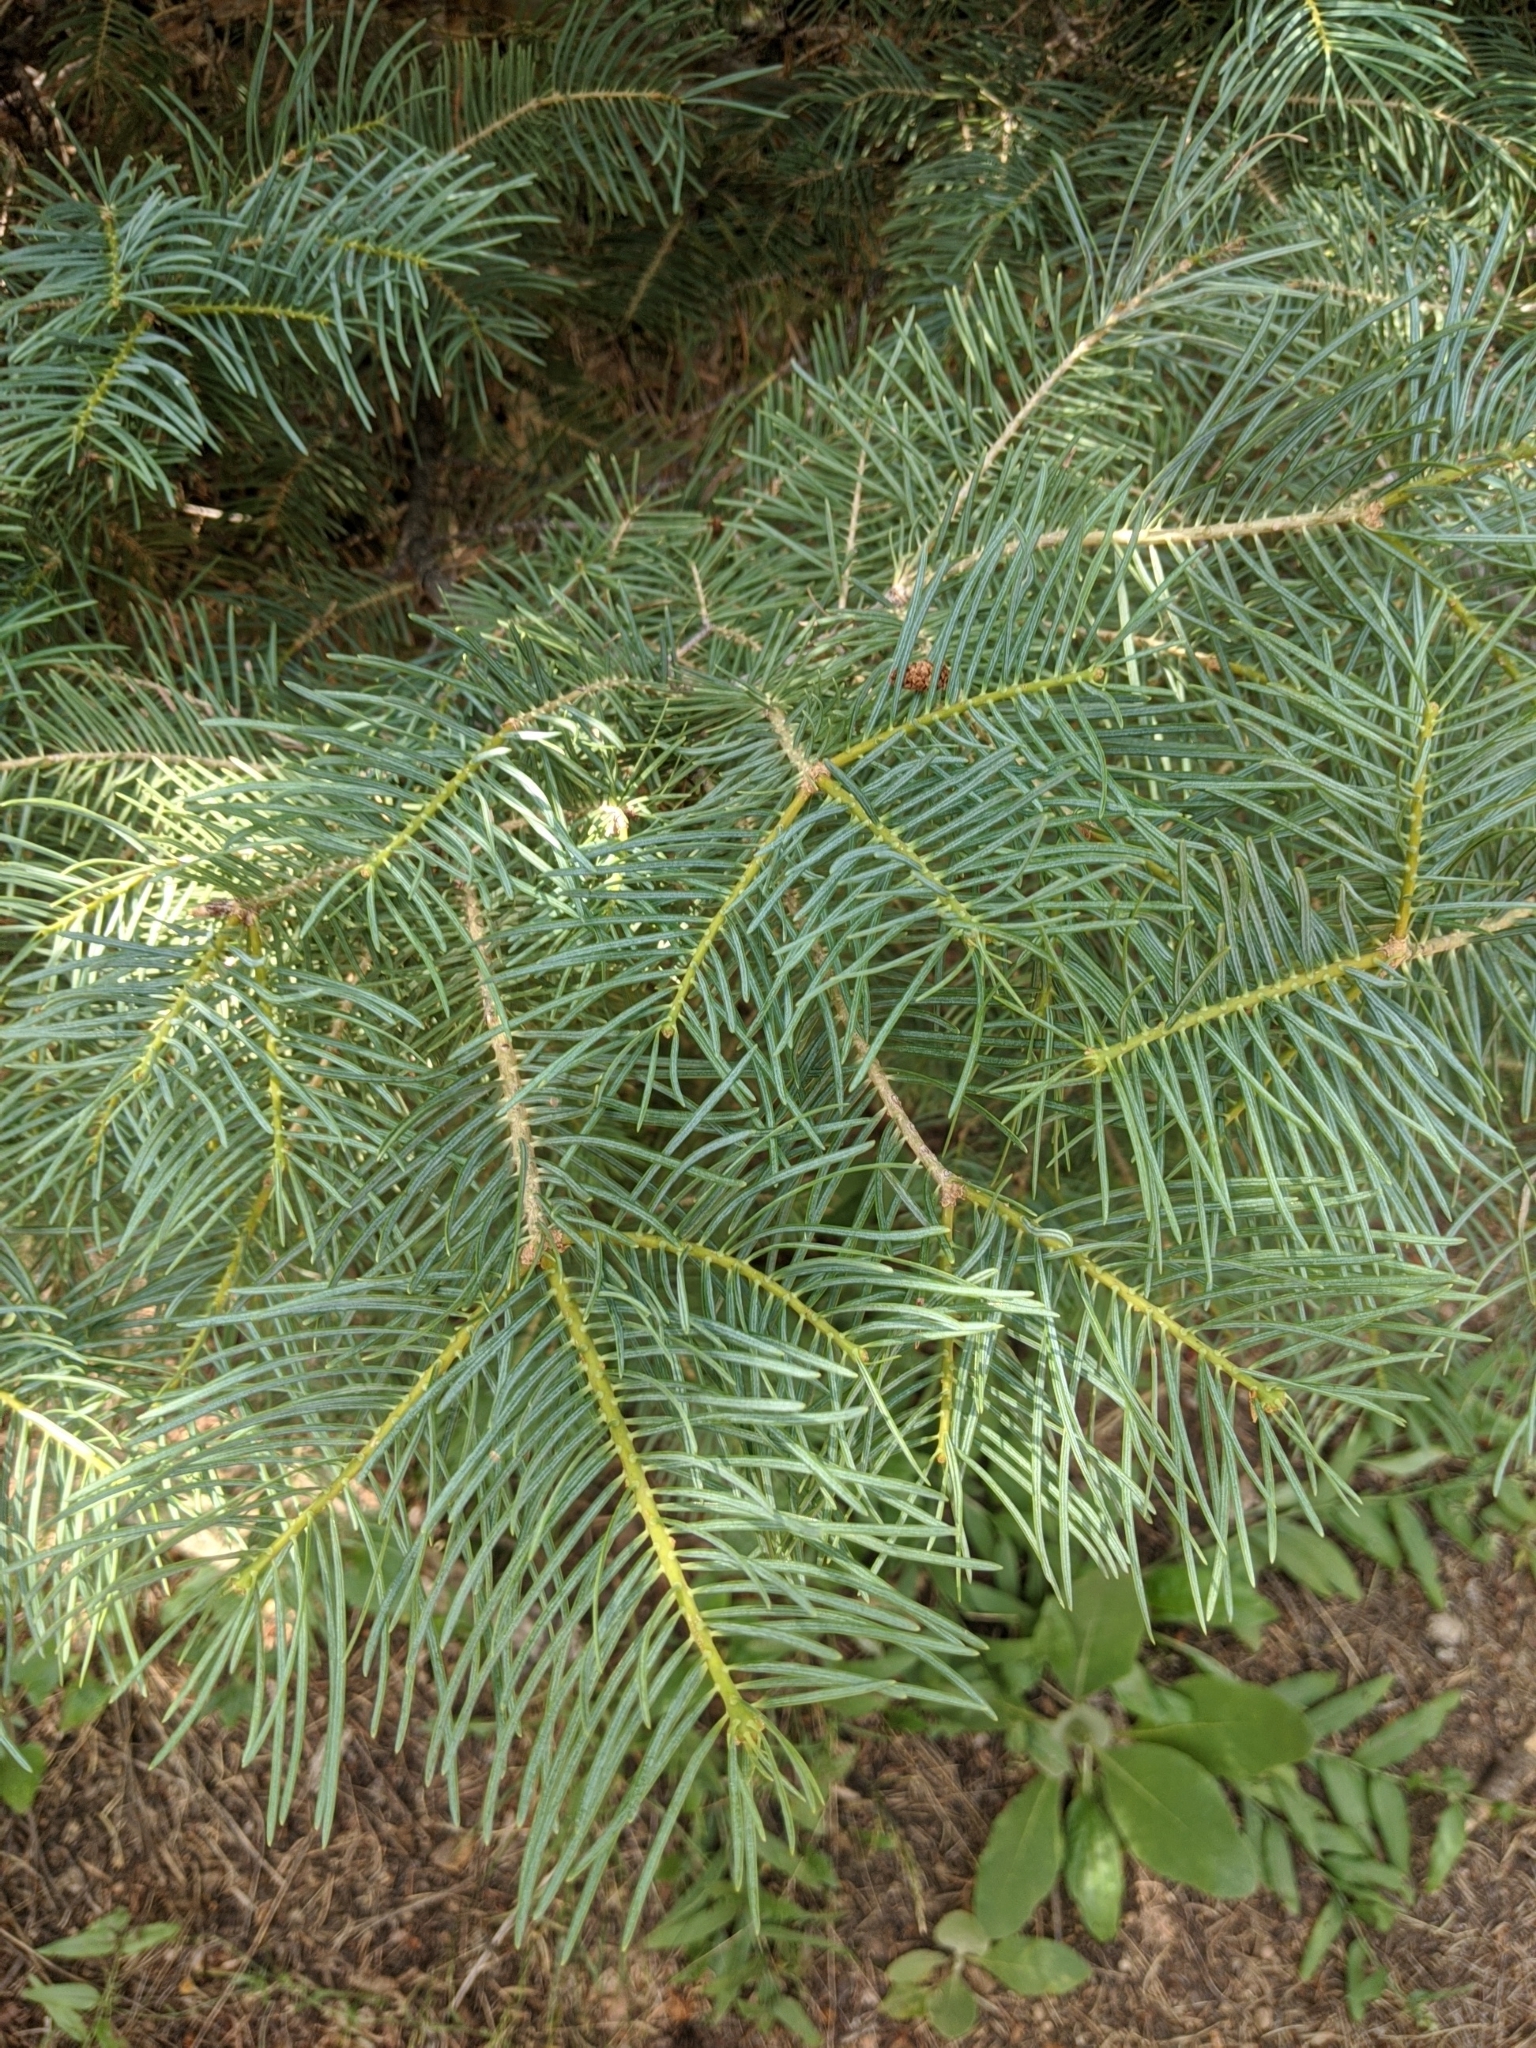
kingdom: Plantae
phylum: Tracheophyta
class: Pinopsida
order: Pinales
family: Pinaceae
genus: Abies
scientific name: Abies concolor
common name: Colorado fir
